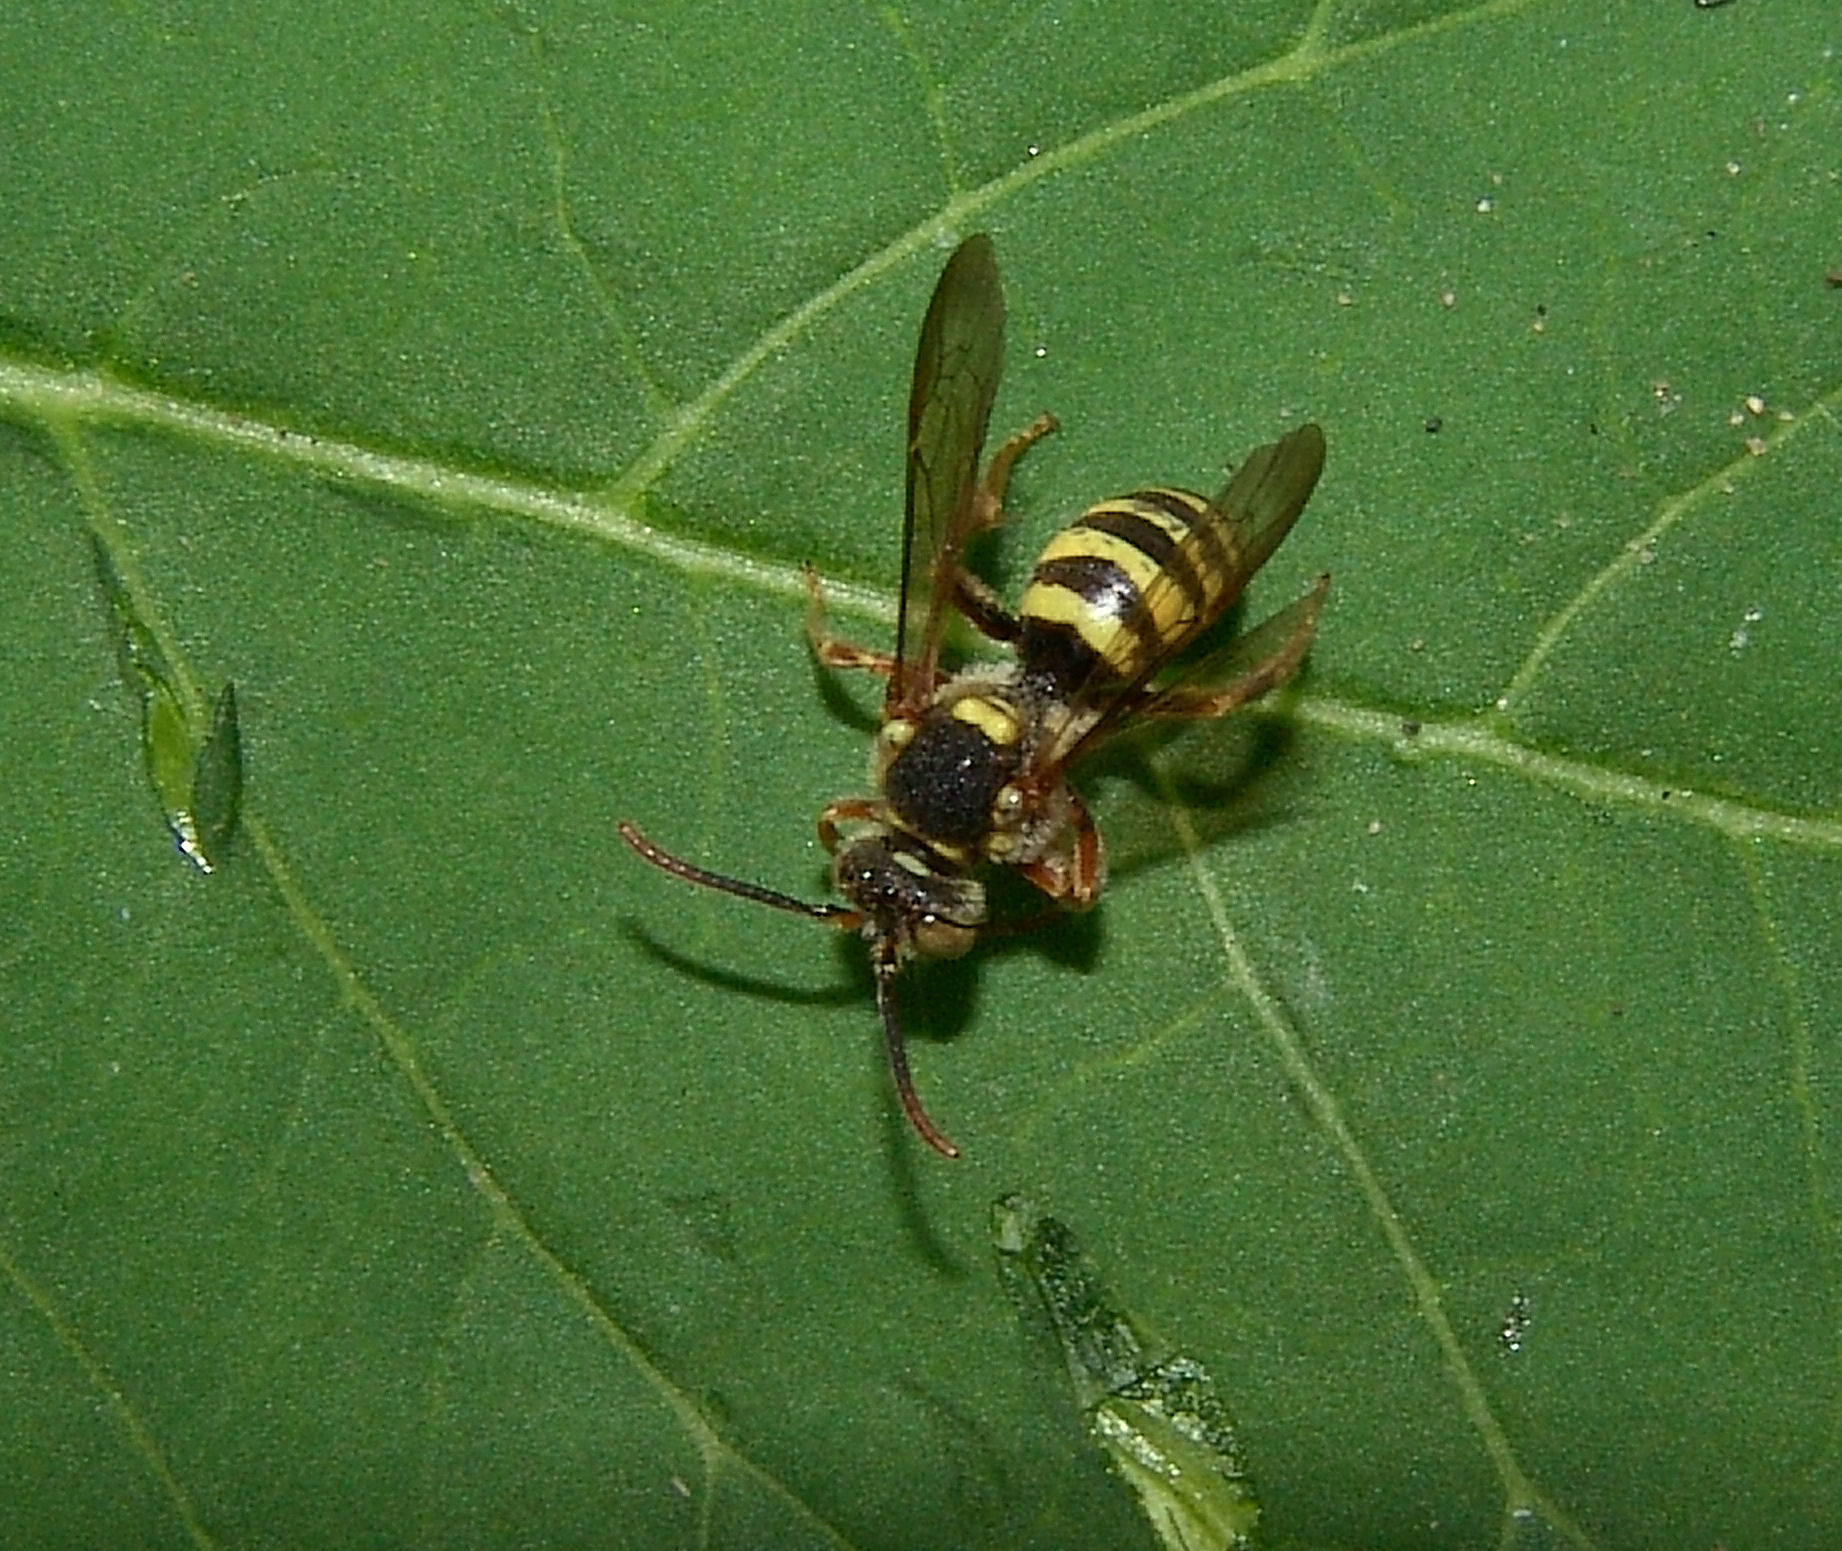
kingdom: Animalia
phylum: Arthropoda
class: Insecta
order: Hymenoptera
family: Apidae
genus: Nomada
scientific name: Nomada
